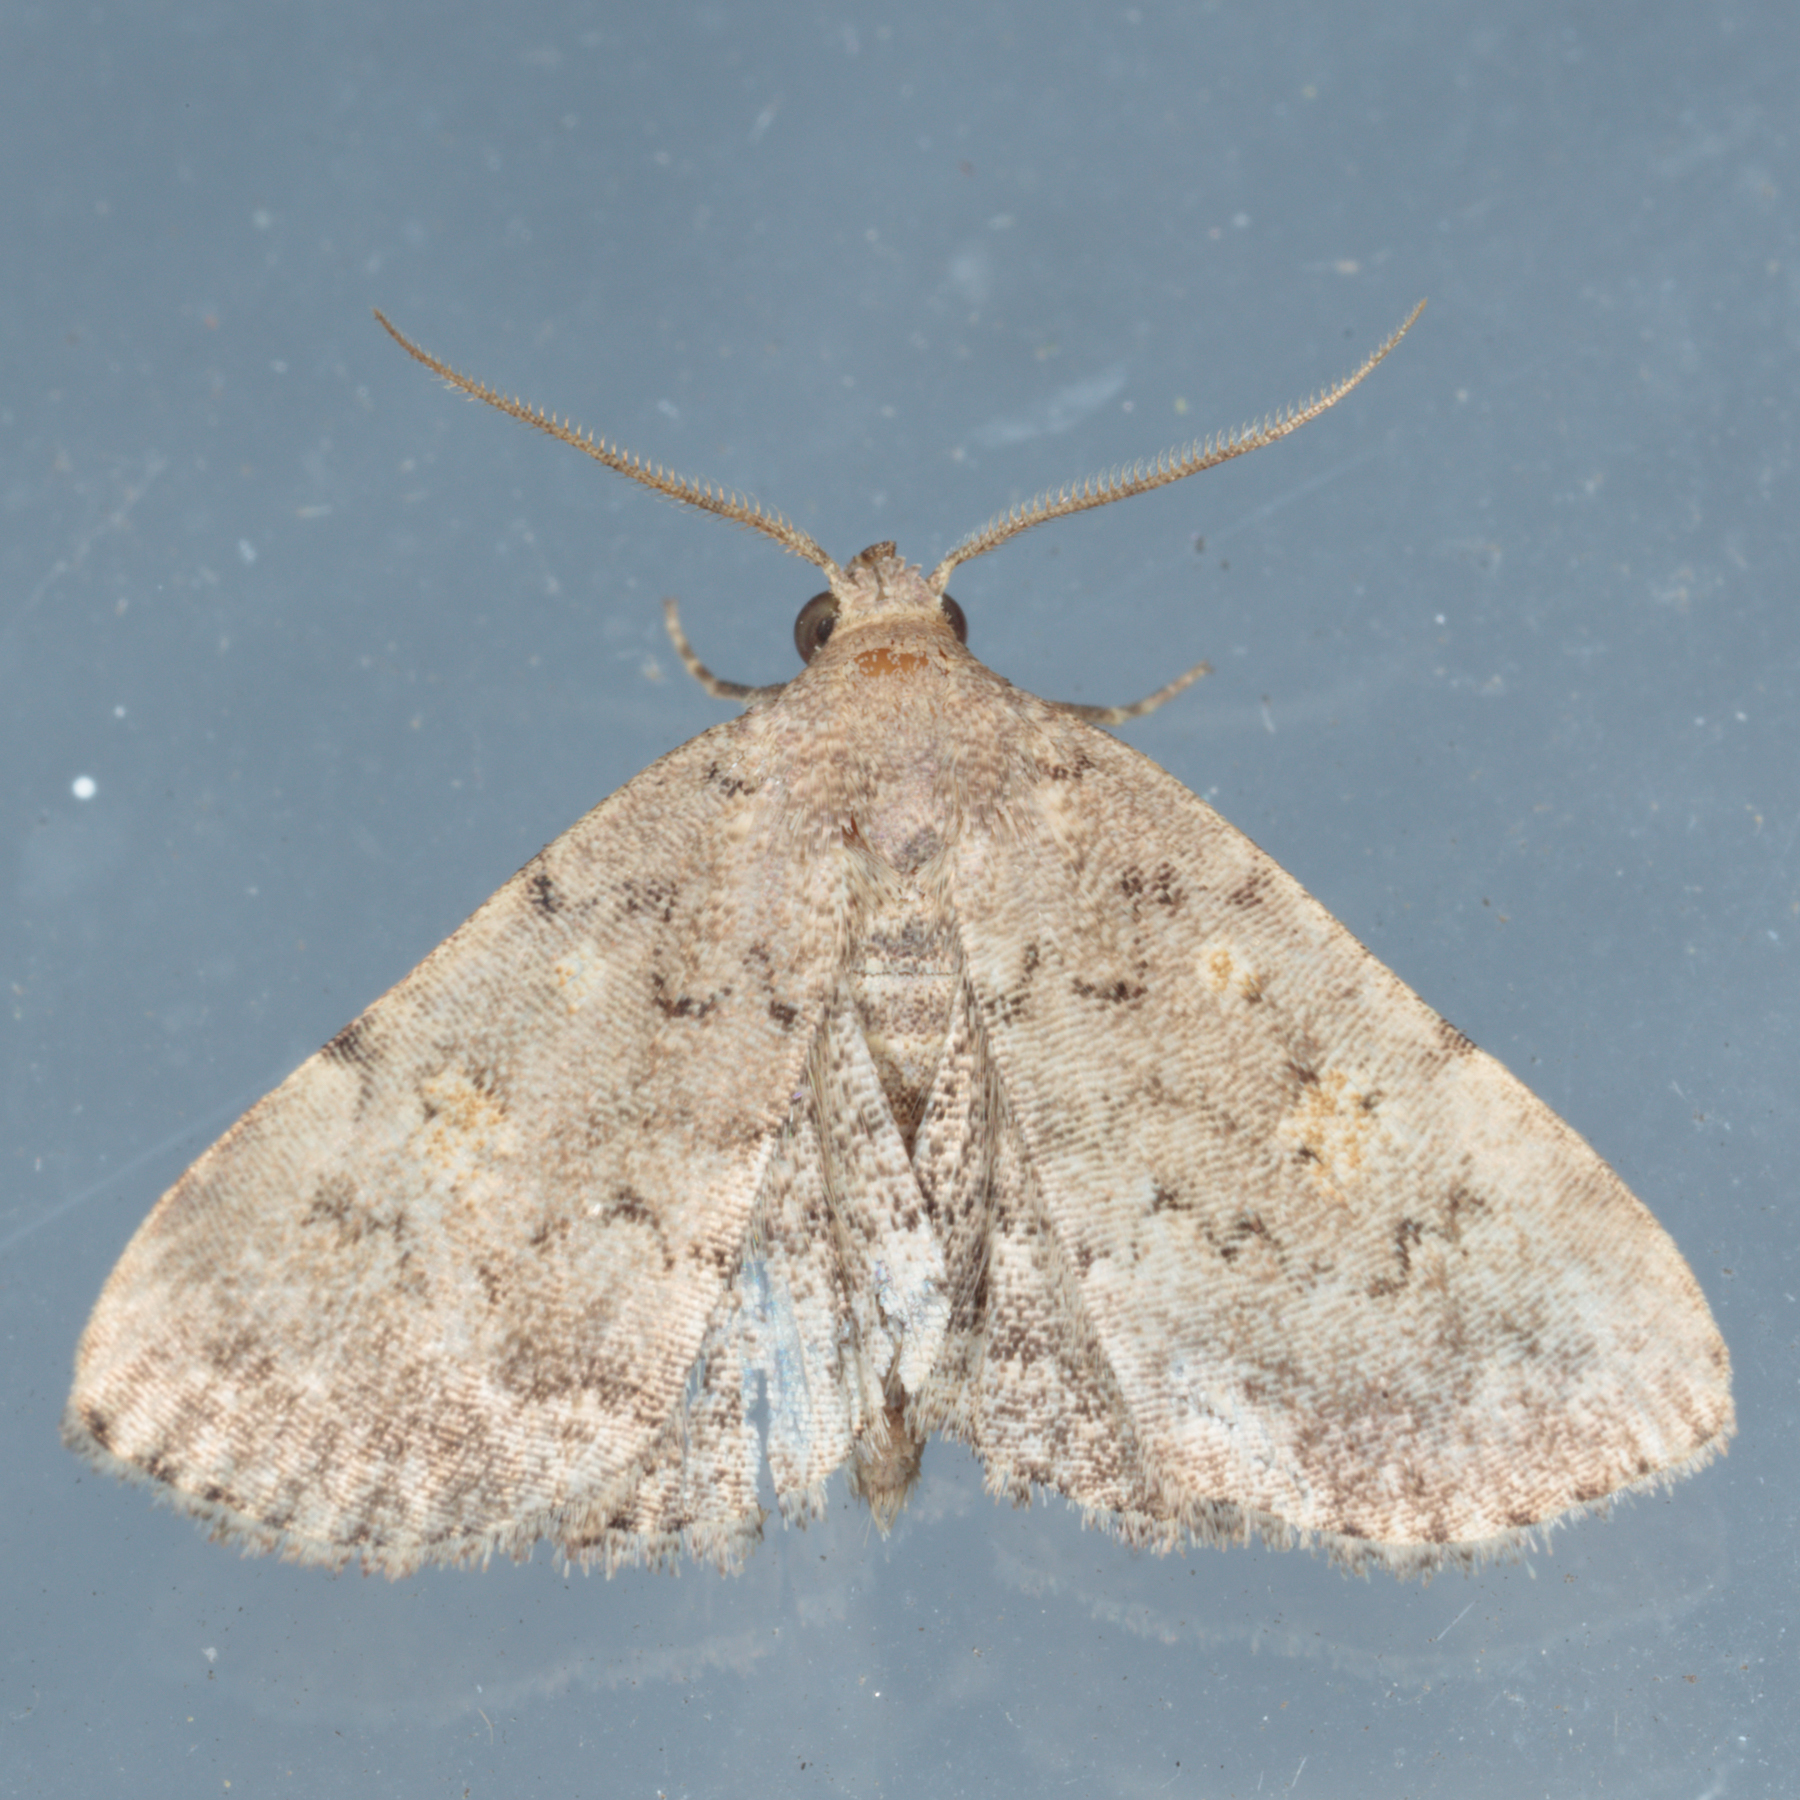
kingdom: Animalia
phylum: Arthropoda
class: Insecta
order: Lepidoptera
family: Erebidae
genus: Idia
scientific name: Idia aemula
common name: Common idia moth
